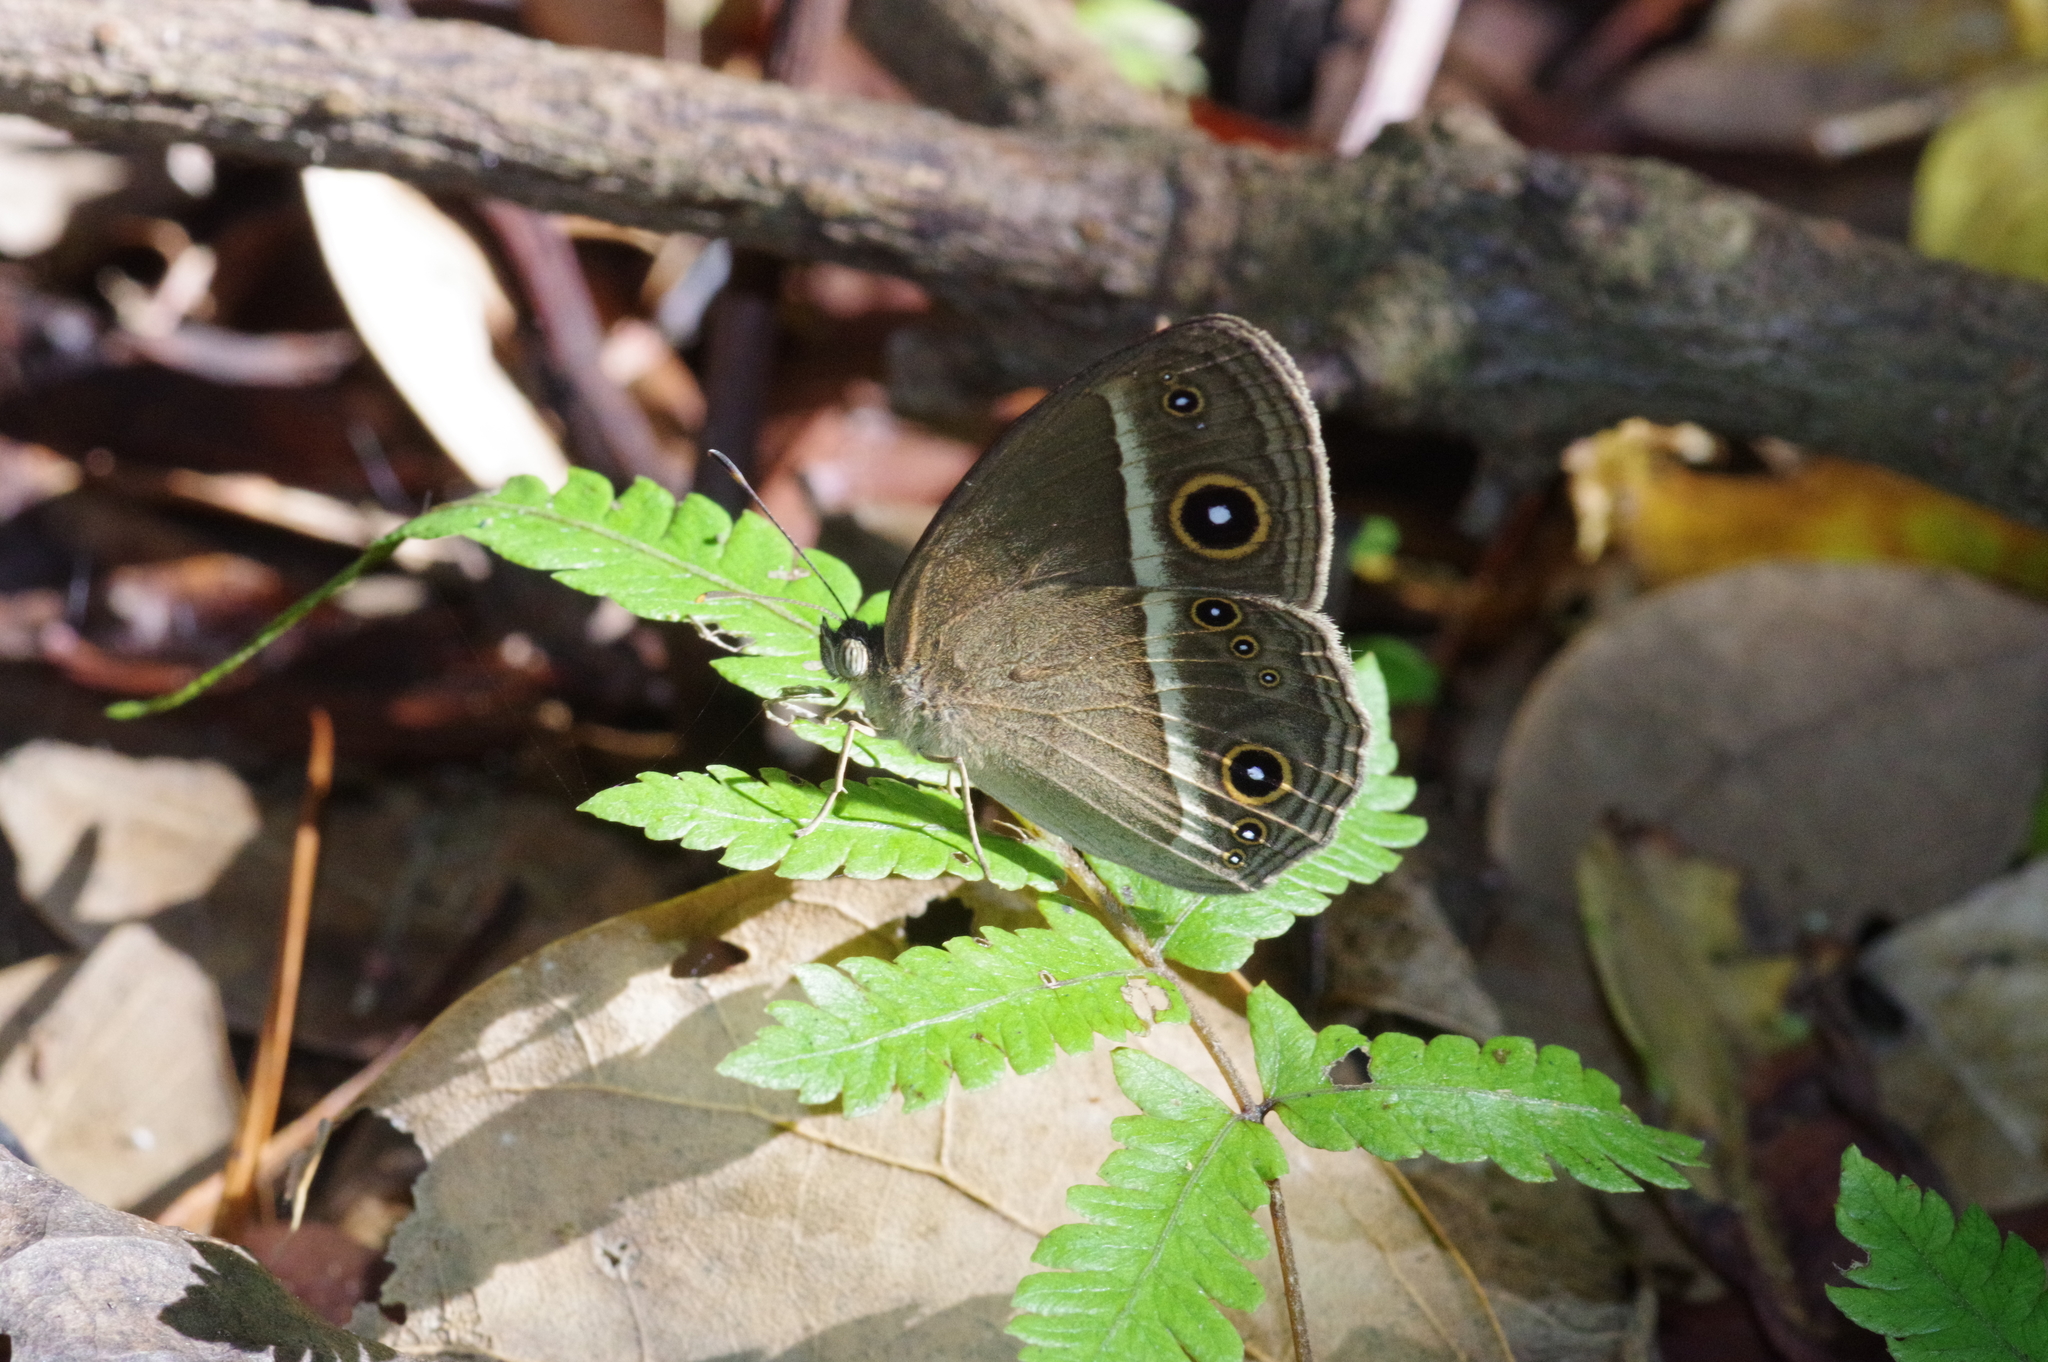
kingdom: Animalia
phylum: Arthropoda
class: Insecta
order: Lepidoptera
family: Nymphalidae
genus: Mycalesis
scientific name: Mycalesis gotama
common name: Chinese bushbrown
